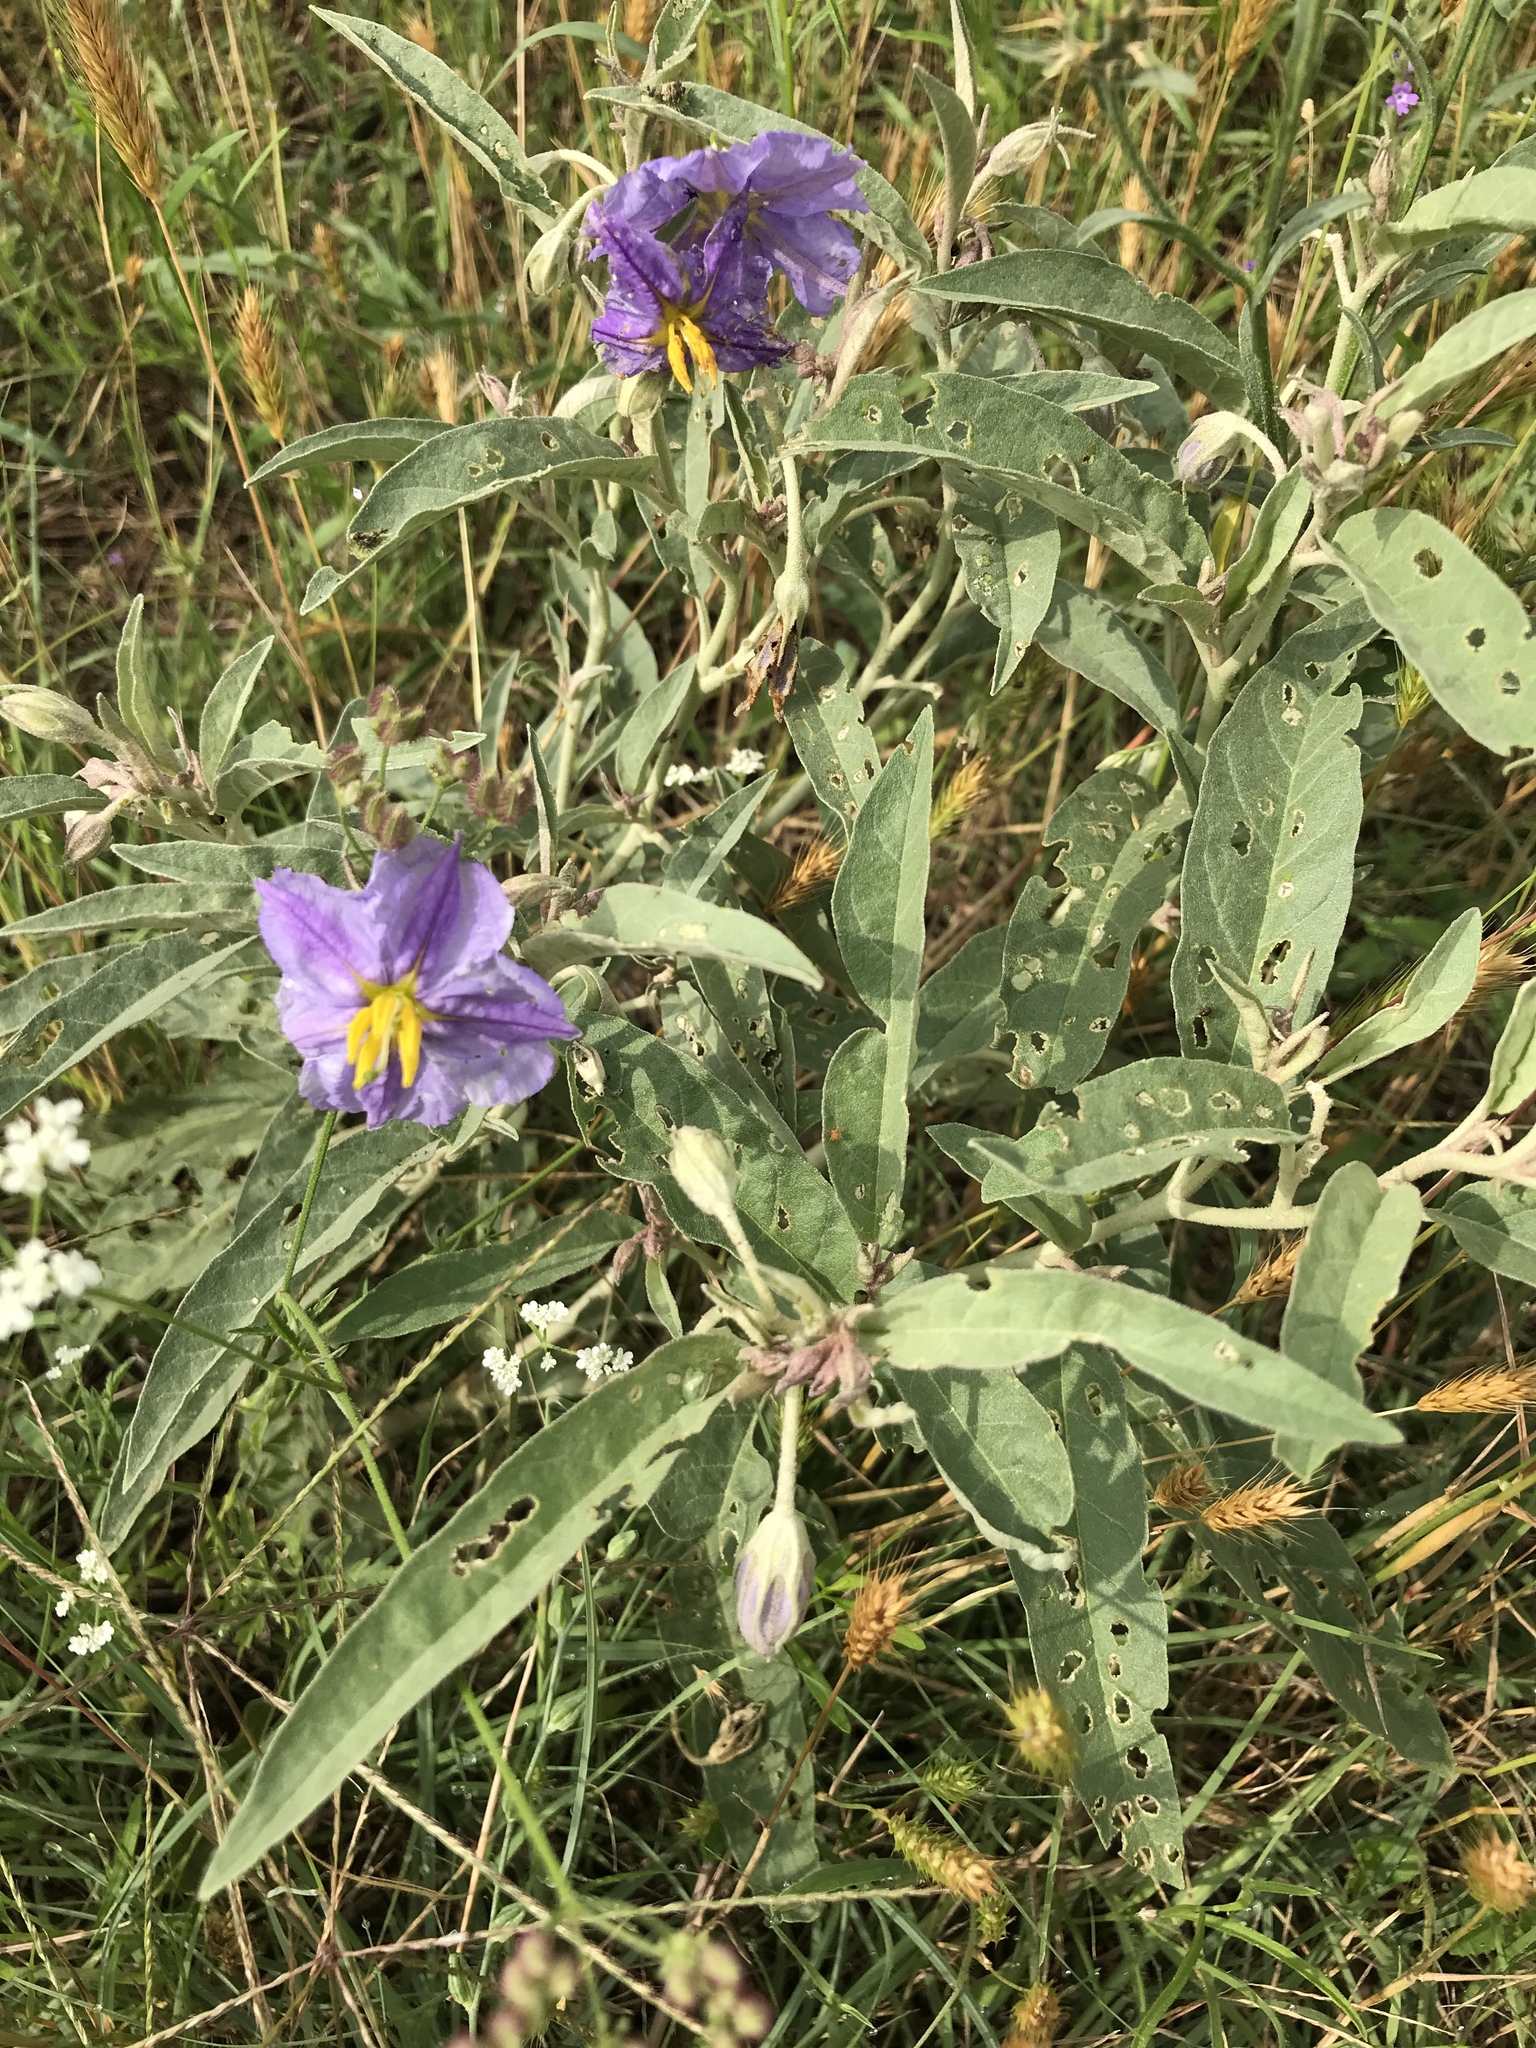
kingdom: Plantae
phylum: Tracheophyta
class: Magnoliopsida
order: Solanales
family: Solanaceae
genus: Solanum
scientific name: Solanum elaeagnifolium
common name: Silverleaf nightshade
